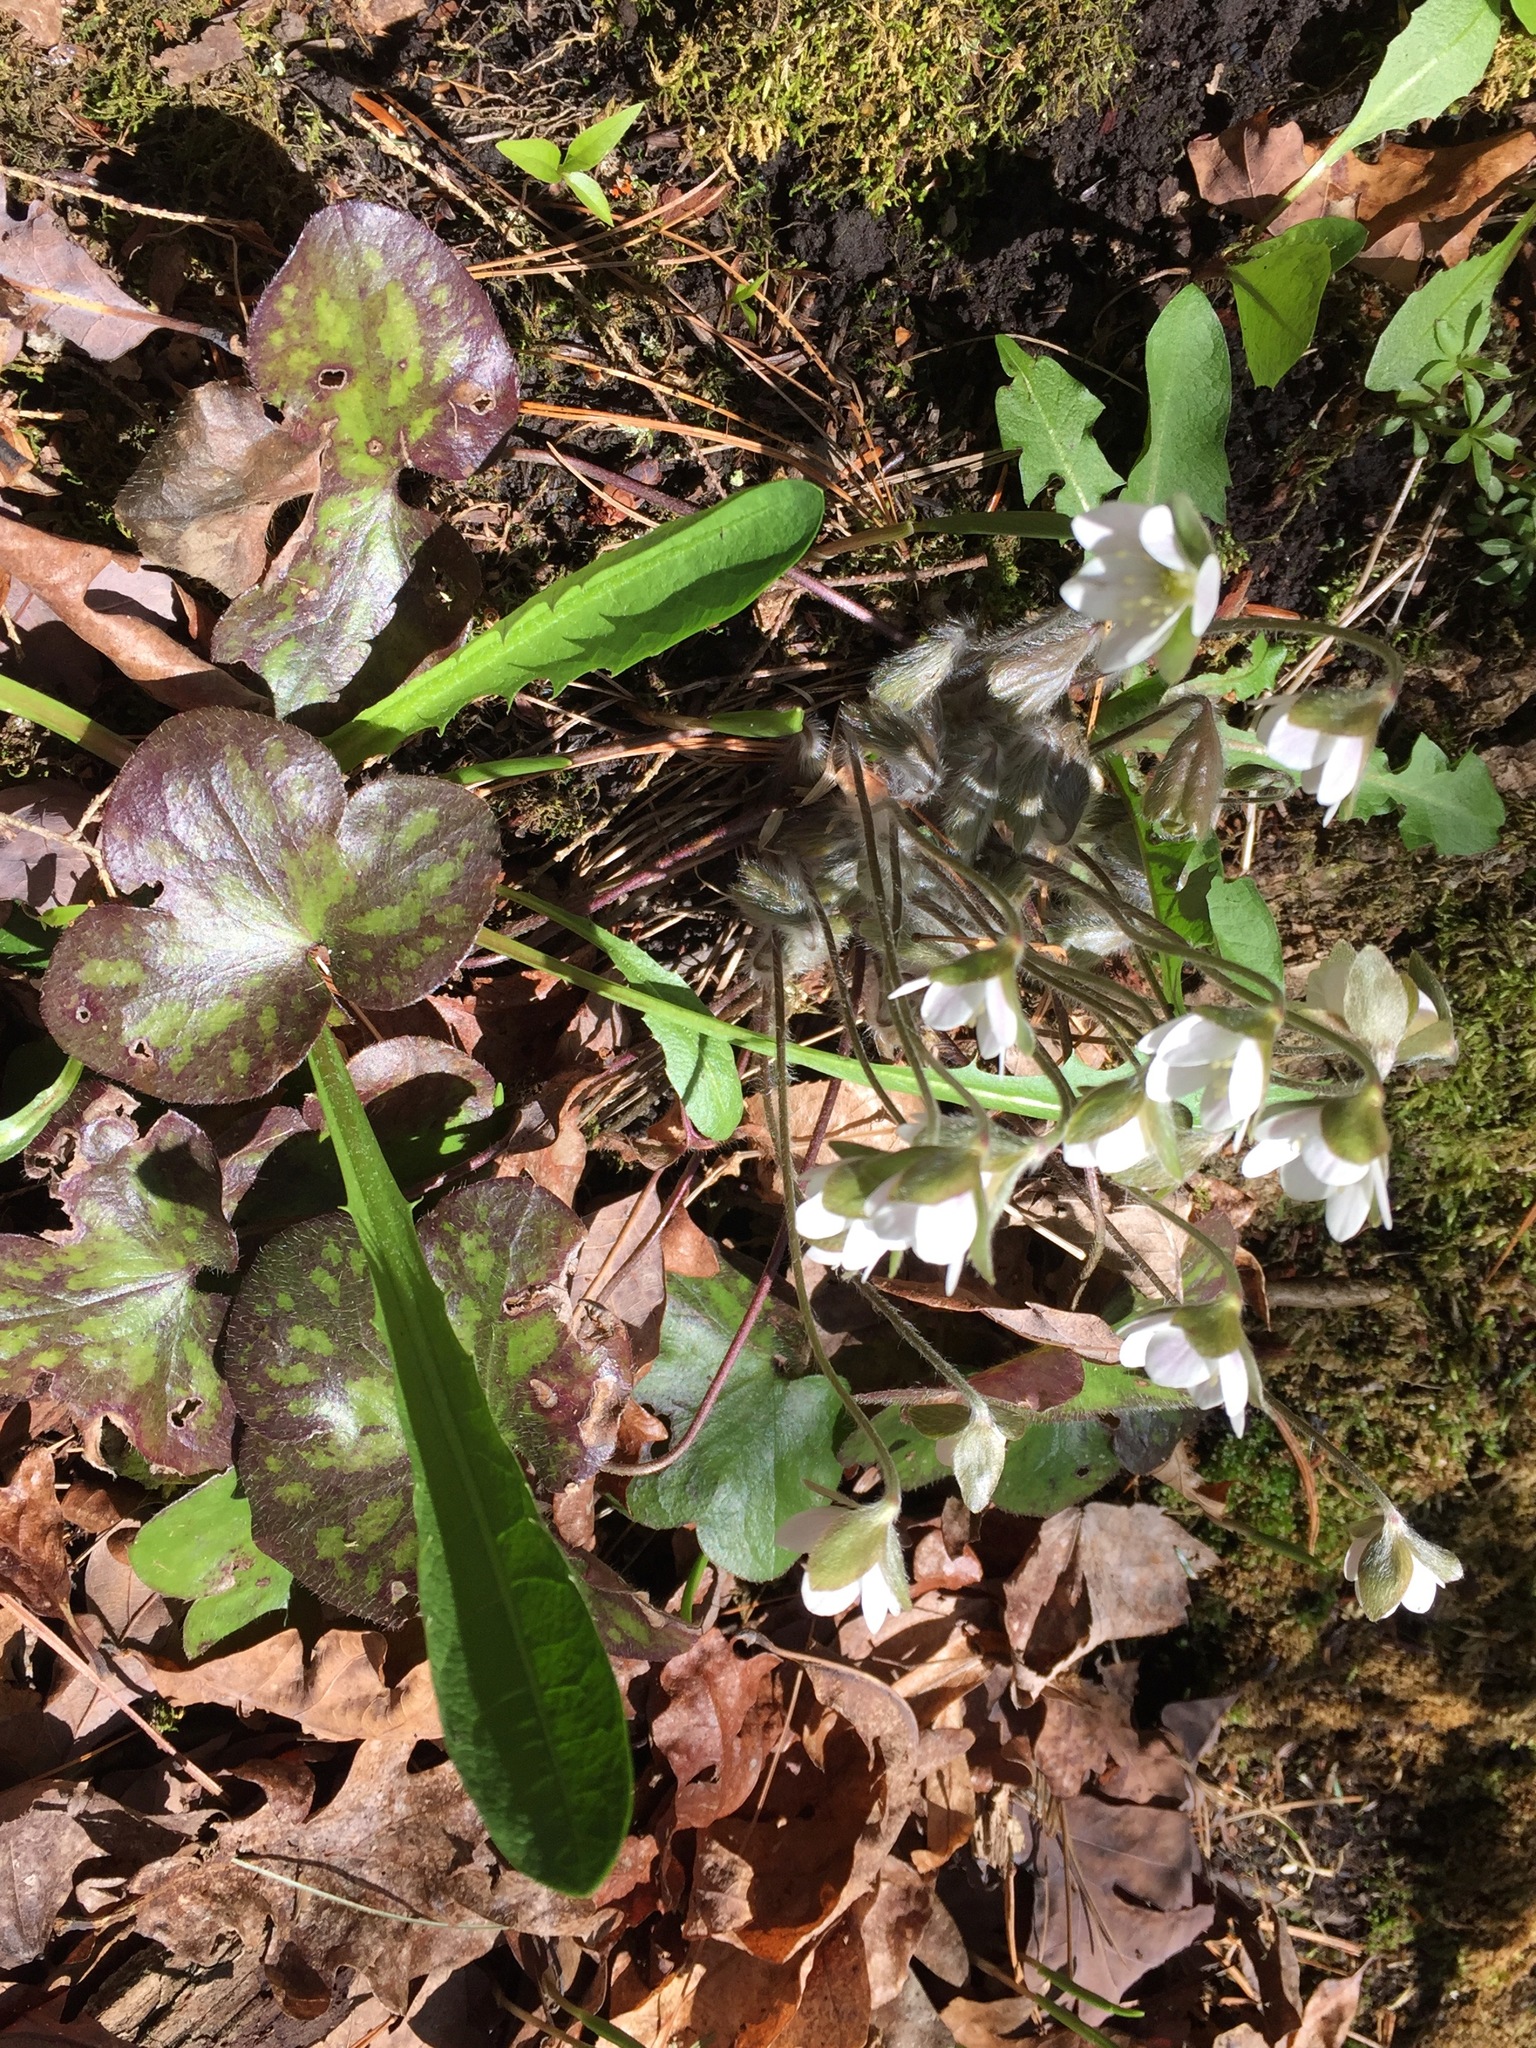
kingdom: Plantae
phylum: Tracheophyta
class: Magnoliopsida
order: Ranunculales
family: Ranunculaceae
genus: Hepatica
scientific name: Hepatica americana
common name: American hepatica
